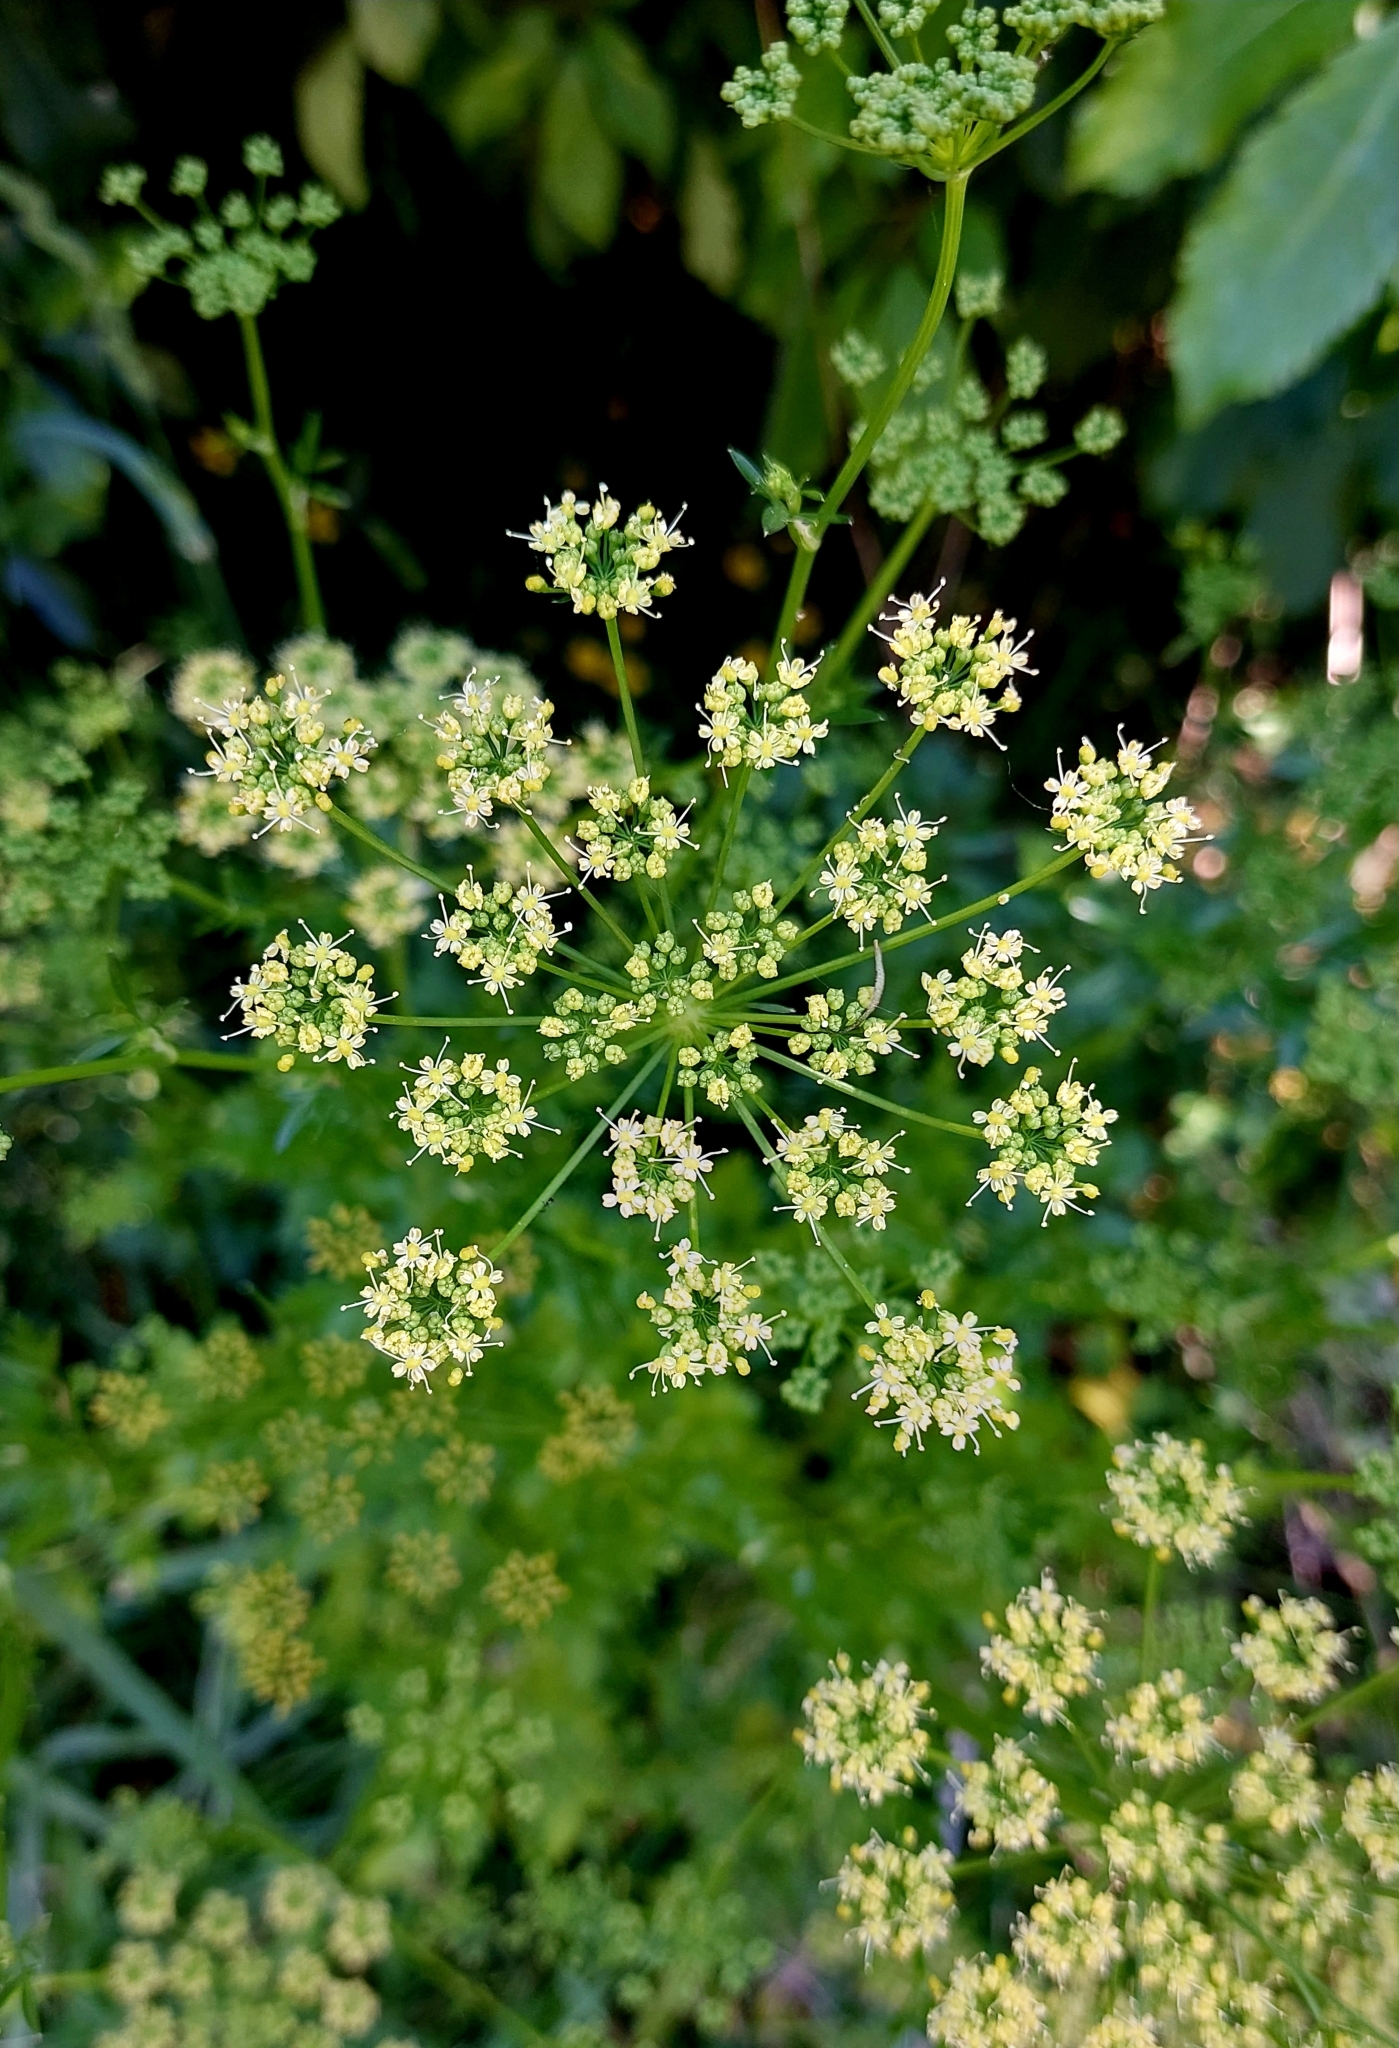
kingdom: Plantae
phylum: Tracheophyta
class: Magnoliopsida
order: Apiales
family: Apiaceae
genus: Petroselinum
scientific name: Petroselinum crispum
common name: Parsley
